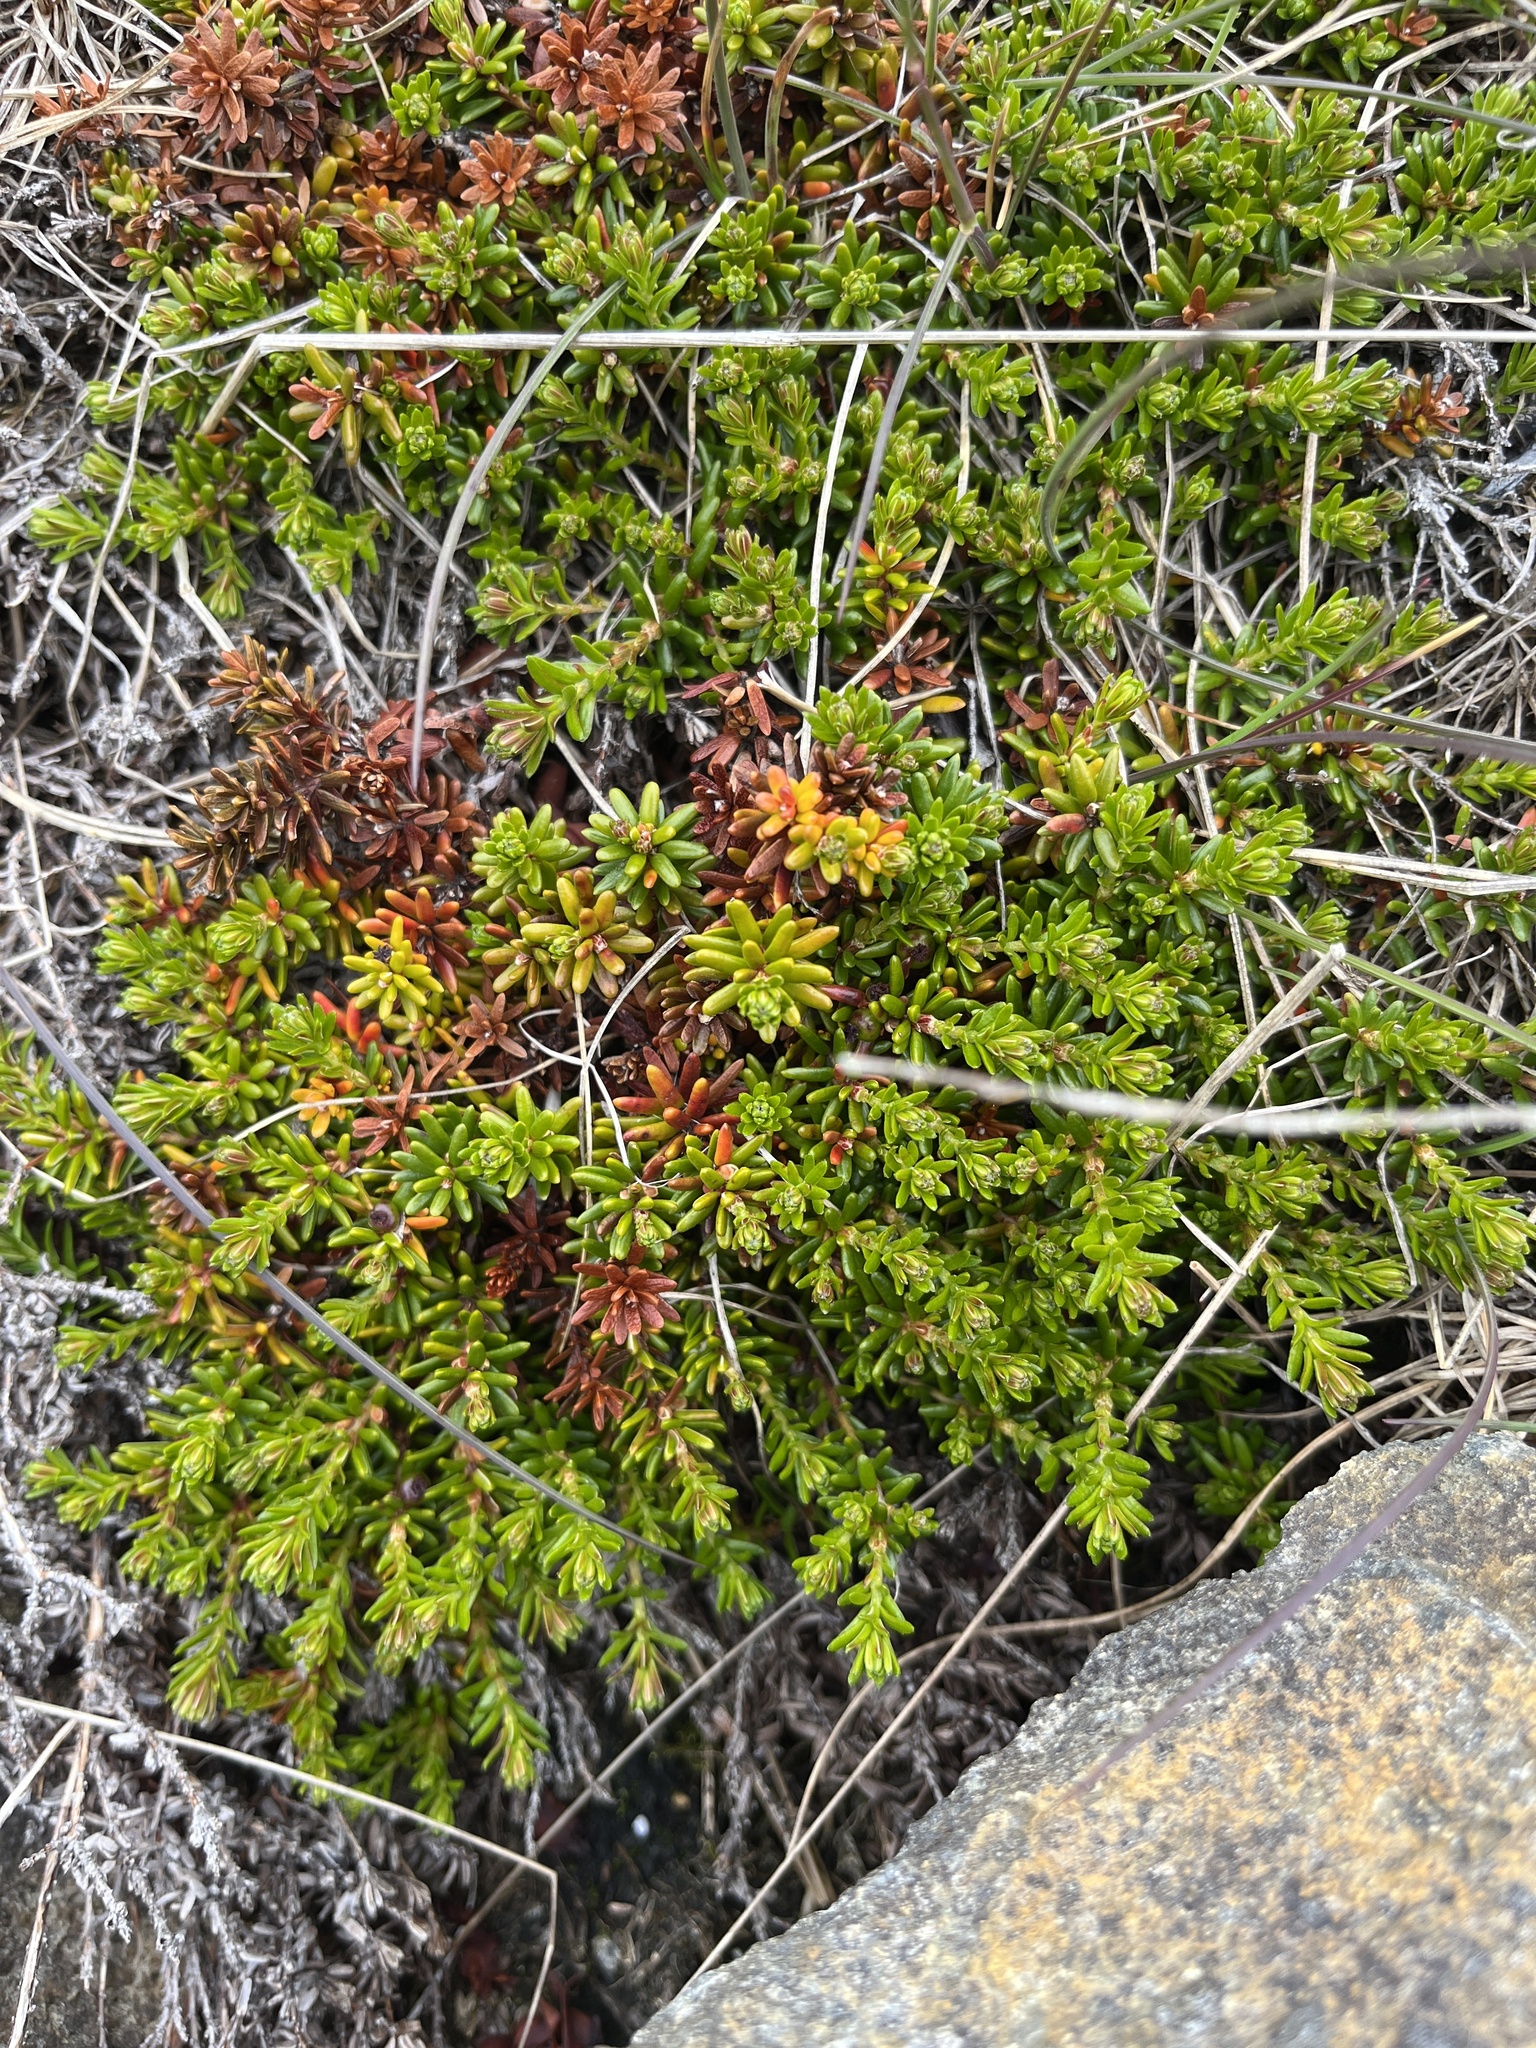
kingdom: Plantae
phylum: Tracheophyta
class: Magnoliopsida
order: Ericales
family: Ericaceae
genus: Empetrum
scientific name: Empetrum hermaphroditum
